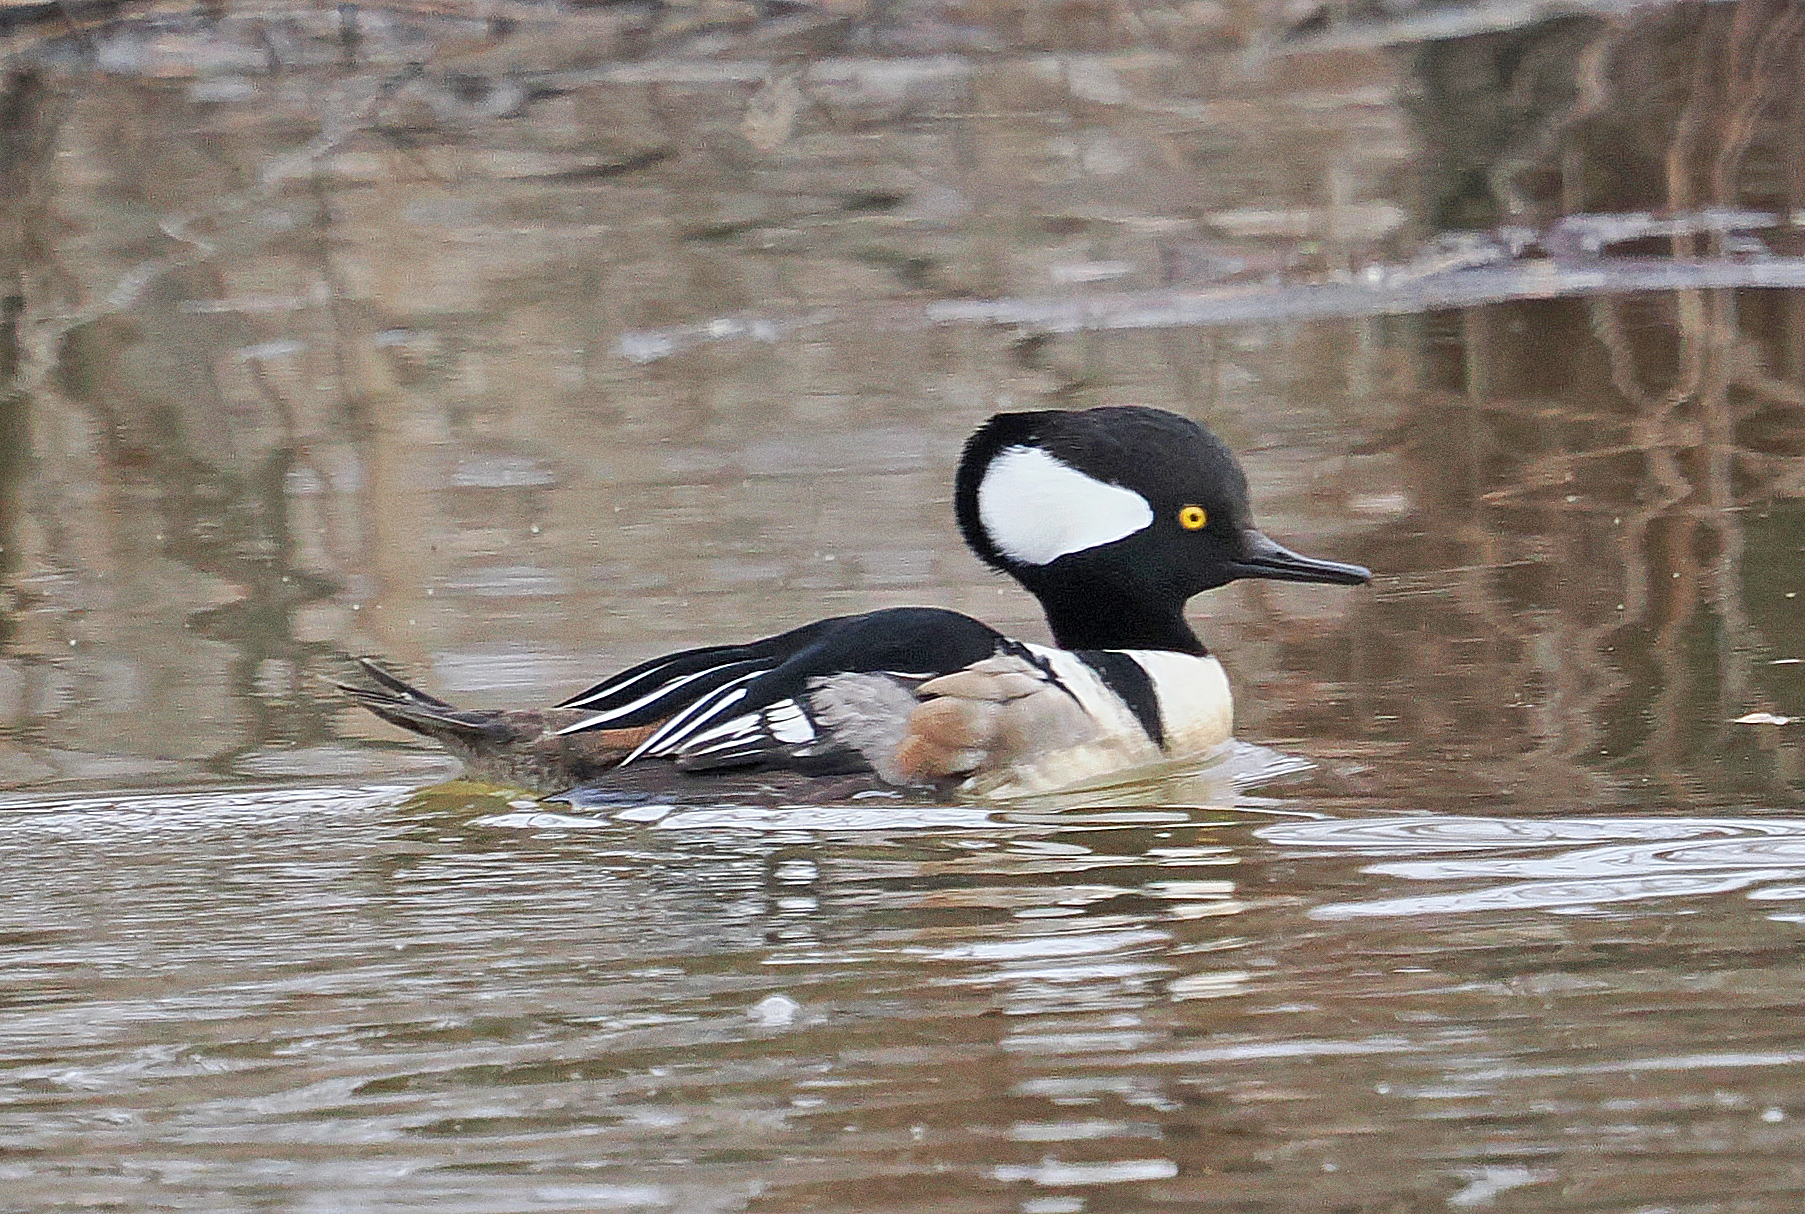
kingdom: Animalia
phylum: Chordata
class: Aves
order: Anseriformes
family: Anatidae
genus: Lophodytes
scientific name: Lophodytes cucullatus
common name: Hooded merganser
